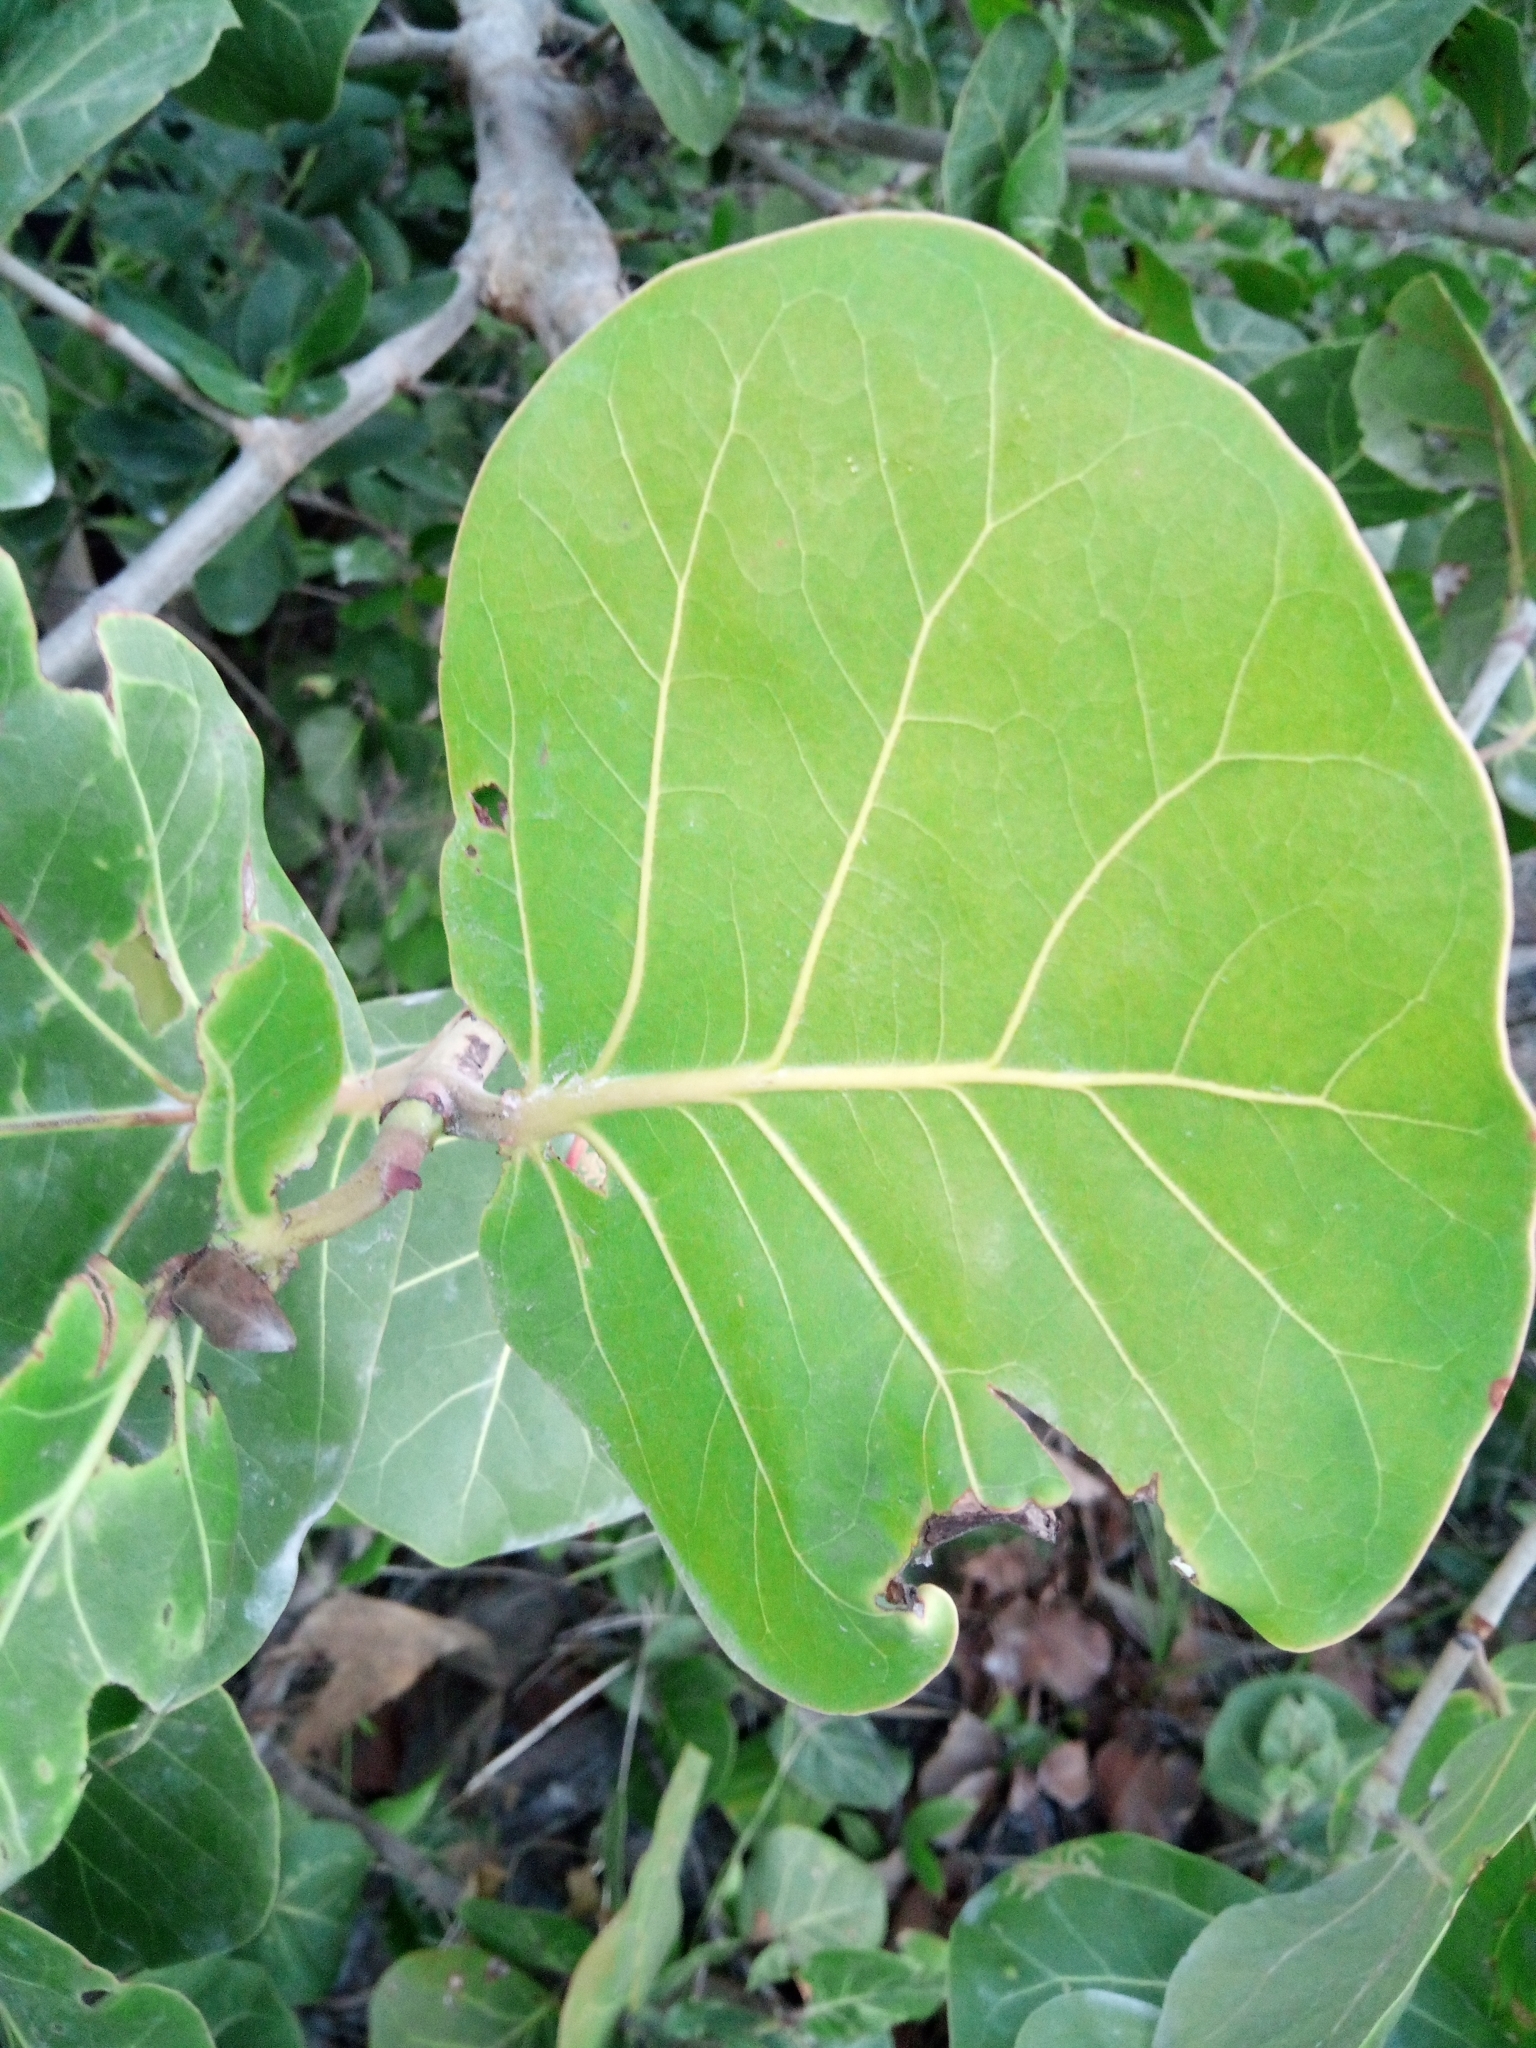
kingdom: Plantae
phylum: Tracheophyta
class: Magnoliopsida
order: Caryophyllales
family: Polygonaceae
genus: Coccoloba
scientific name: Coccoloba uvifera
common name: Seagrape
